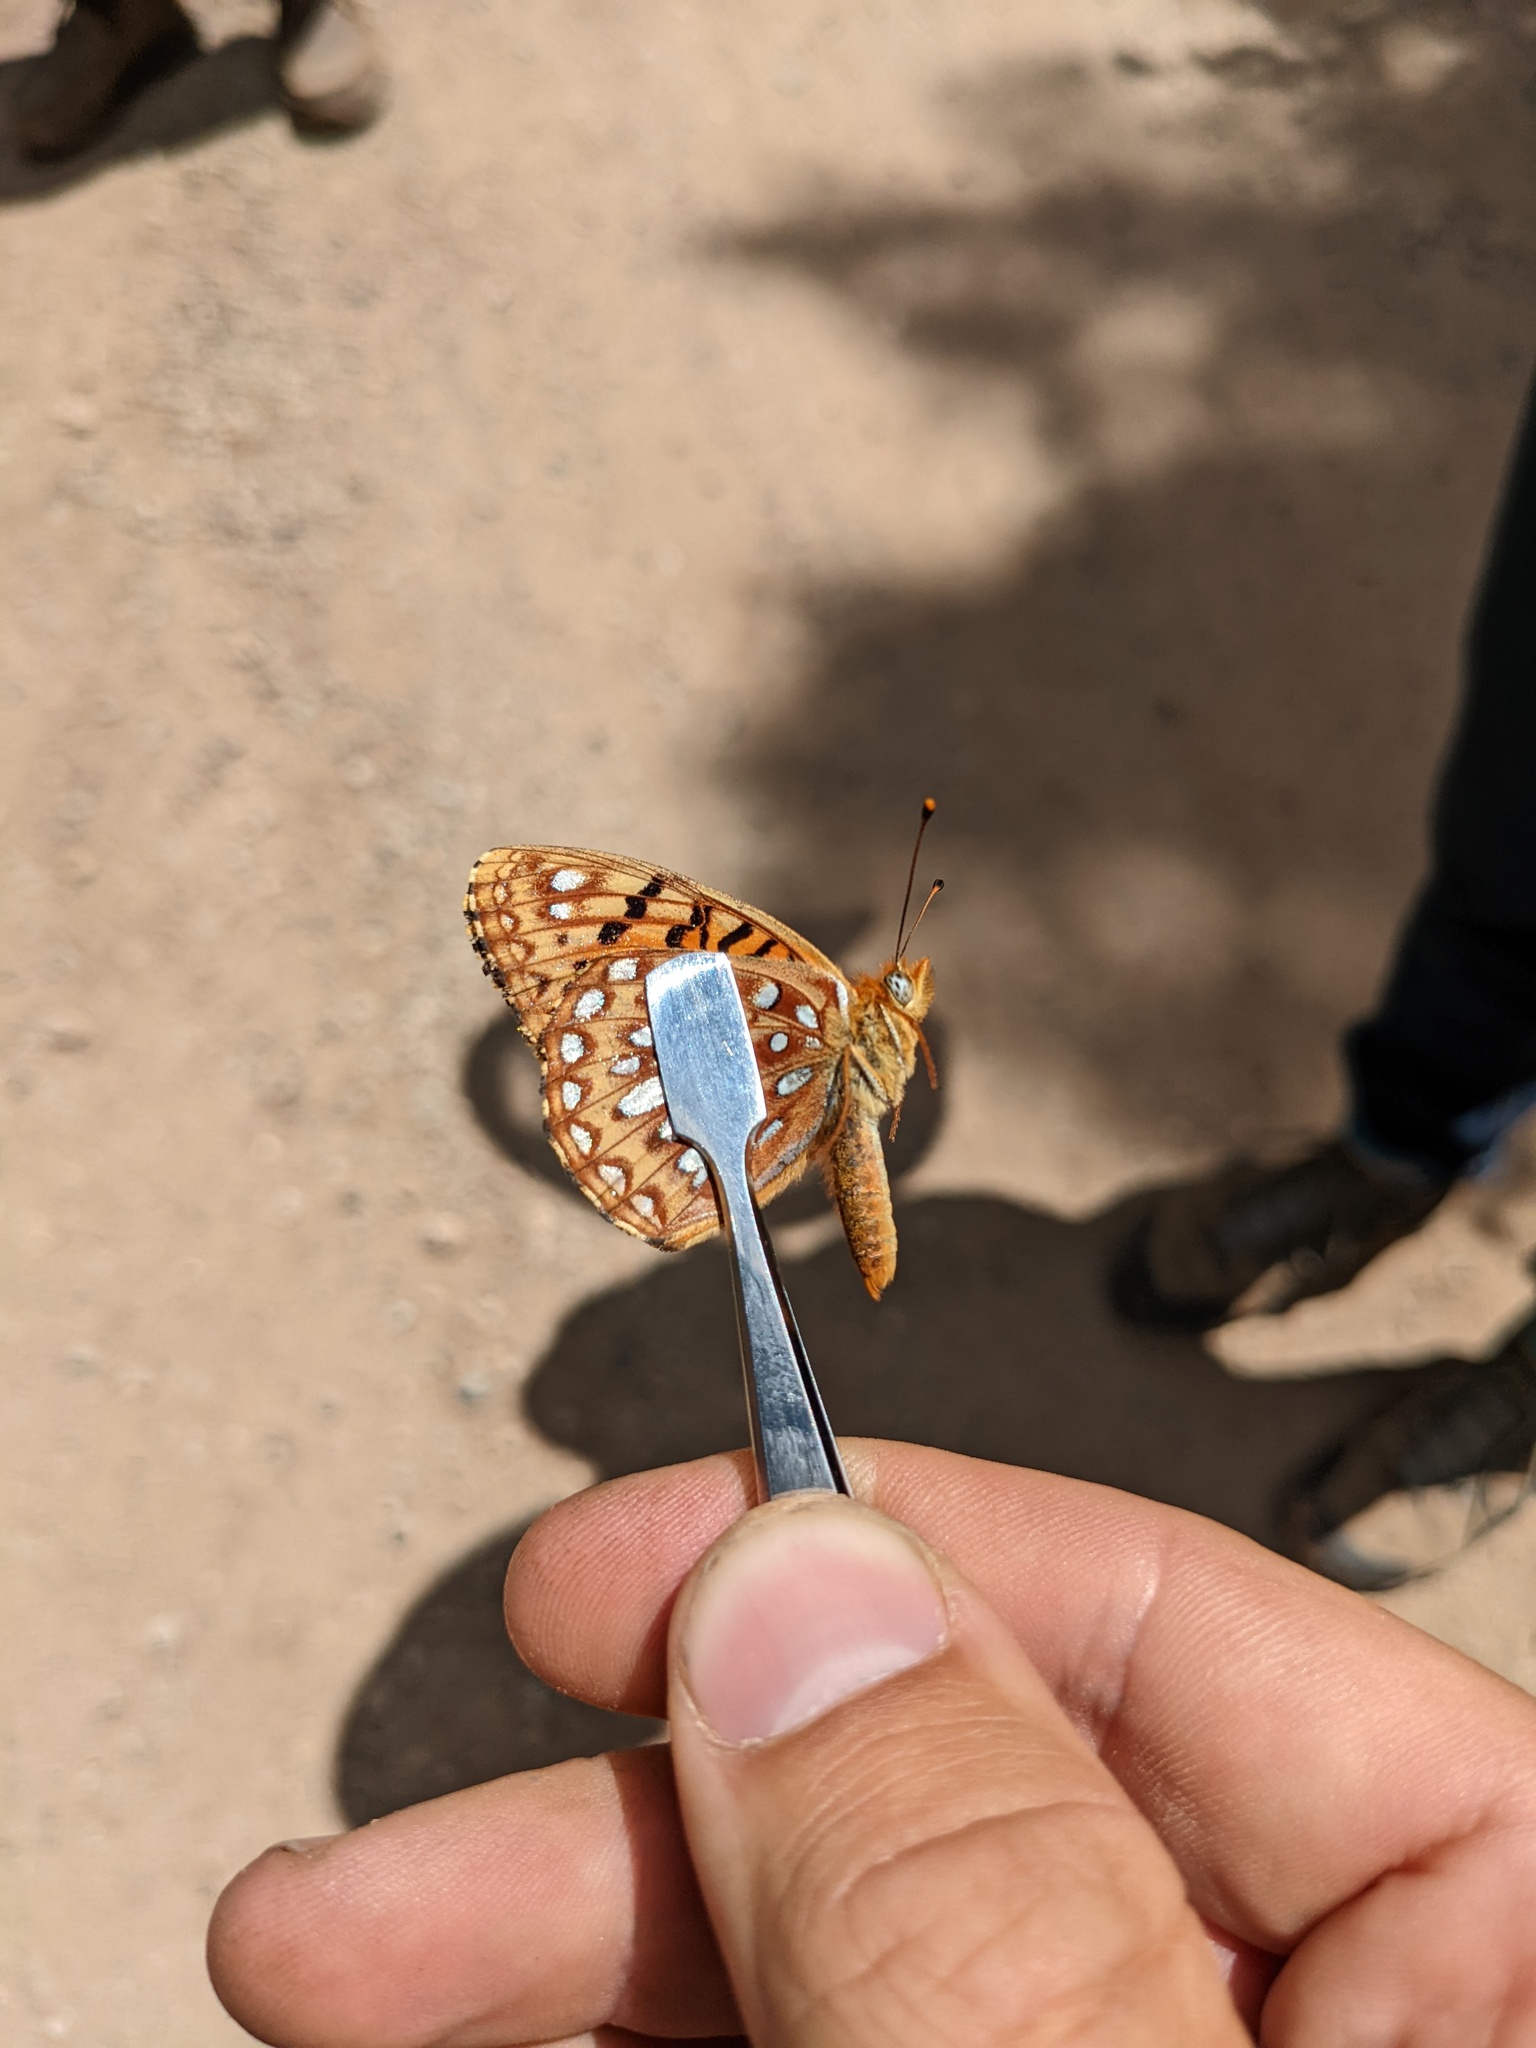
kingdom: Animalia
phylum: Arthropoda
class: Insecta
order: Lepidoptera
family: Nymphalidae
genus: Speyeria
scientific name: Speyeria atlantis
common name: Atlantis fritillary
